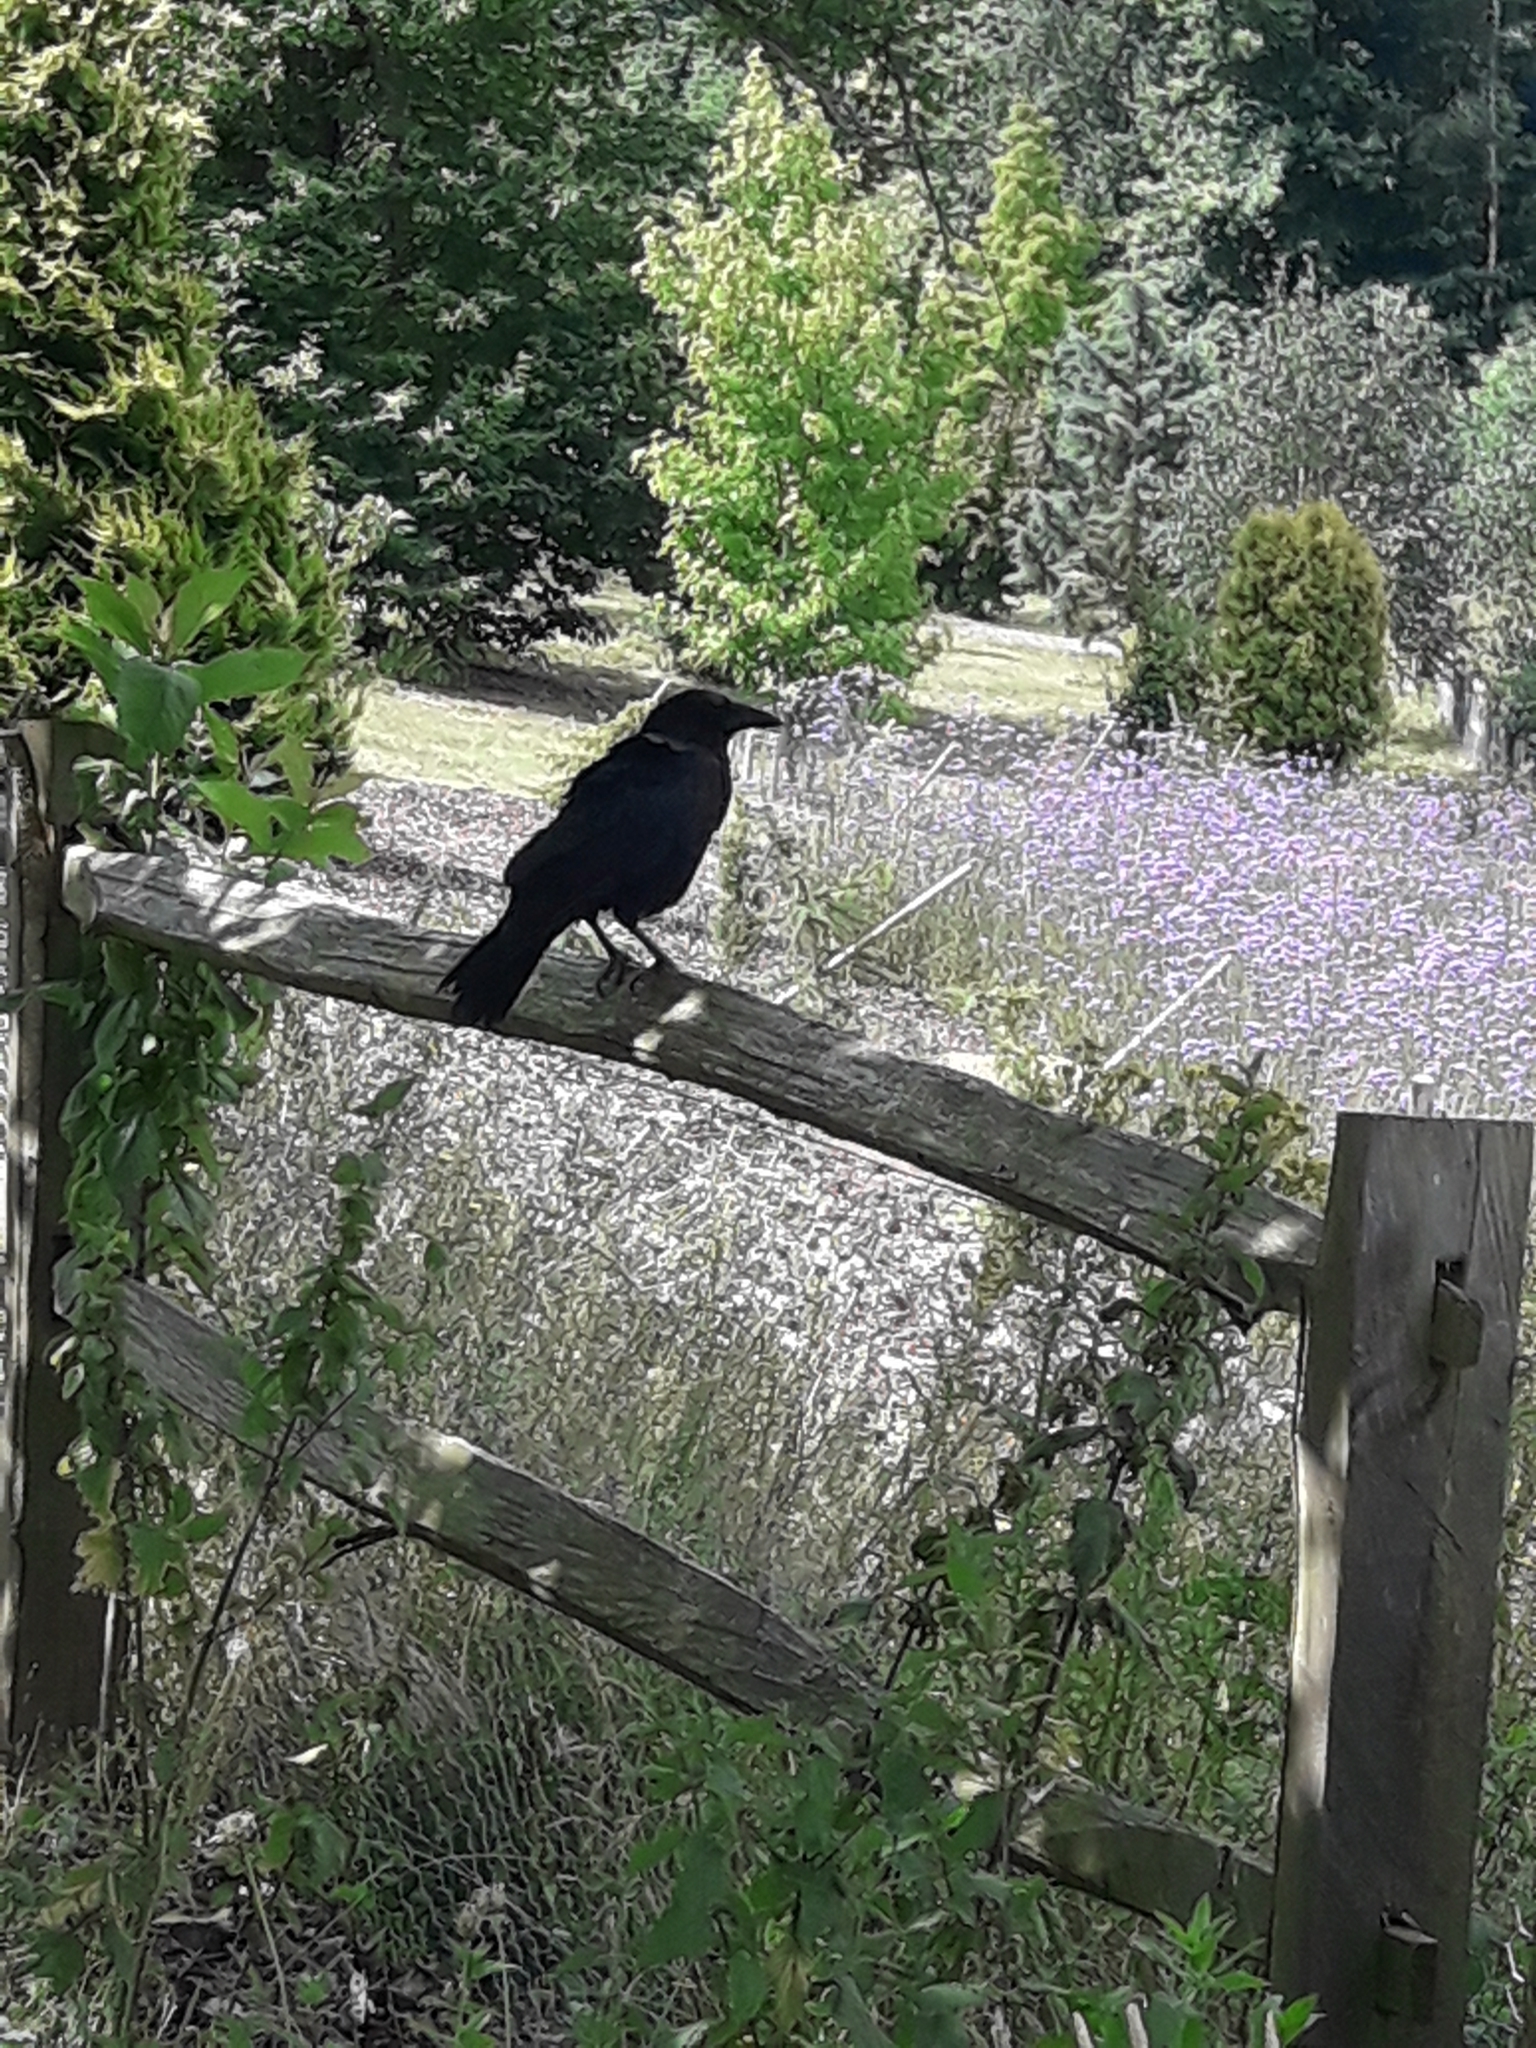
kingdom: Animalia
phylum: Chordata
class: Aves
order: Passeriformes
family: Corvidae
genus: Corvus
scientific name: Corvus corone
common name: Carrion crow
